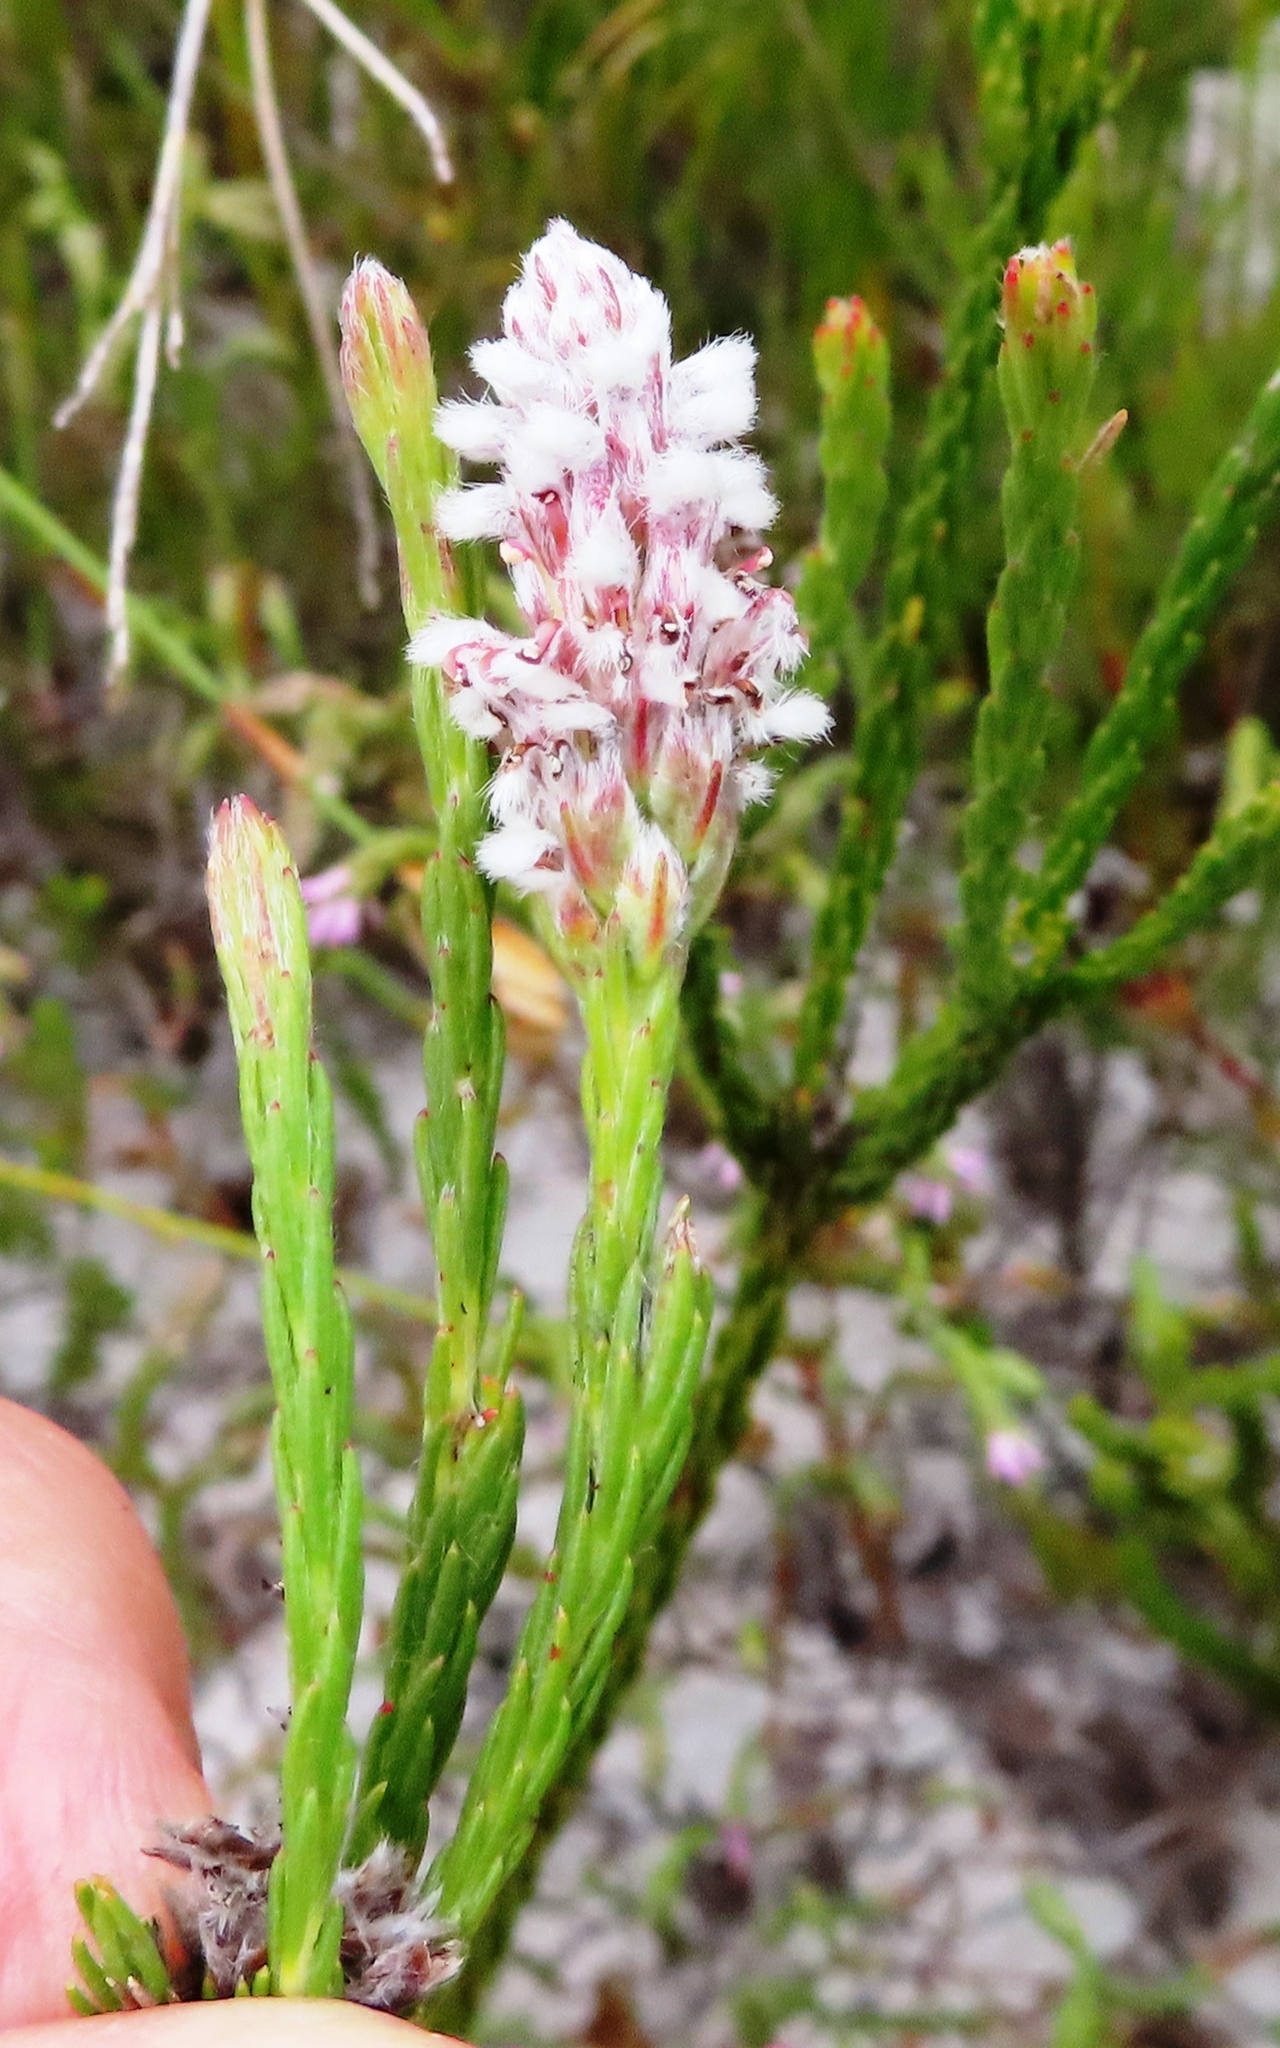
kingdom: Plantae
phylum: Tracheophyta
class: Magnoliopsida
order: Proteales
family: Proteaceae
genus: Spatalla
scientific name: Spatalla ericoides
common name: Erica-leaf spoon
